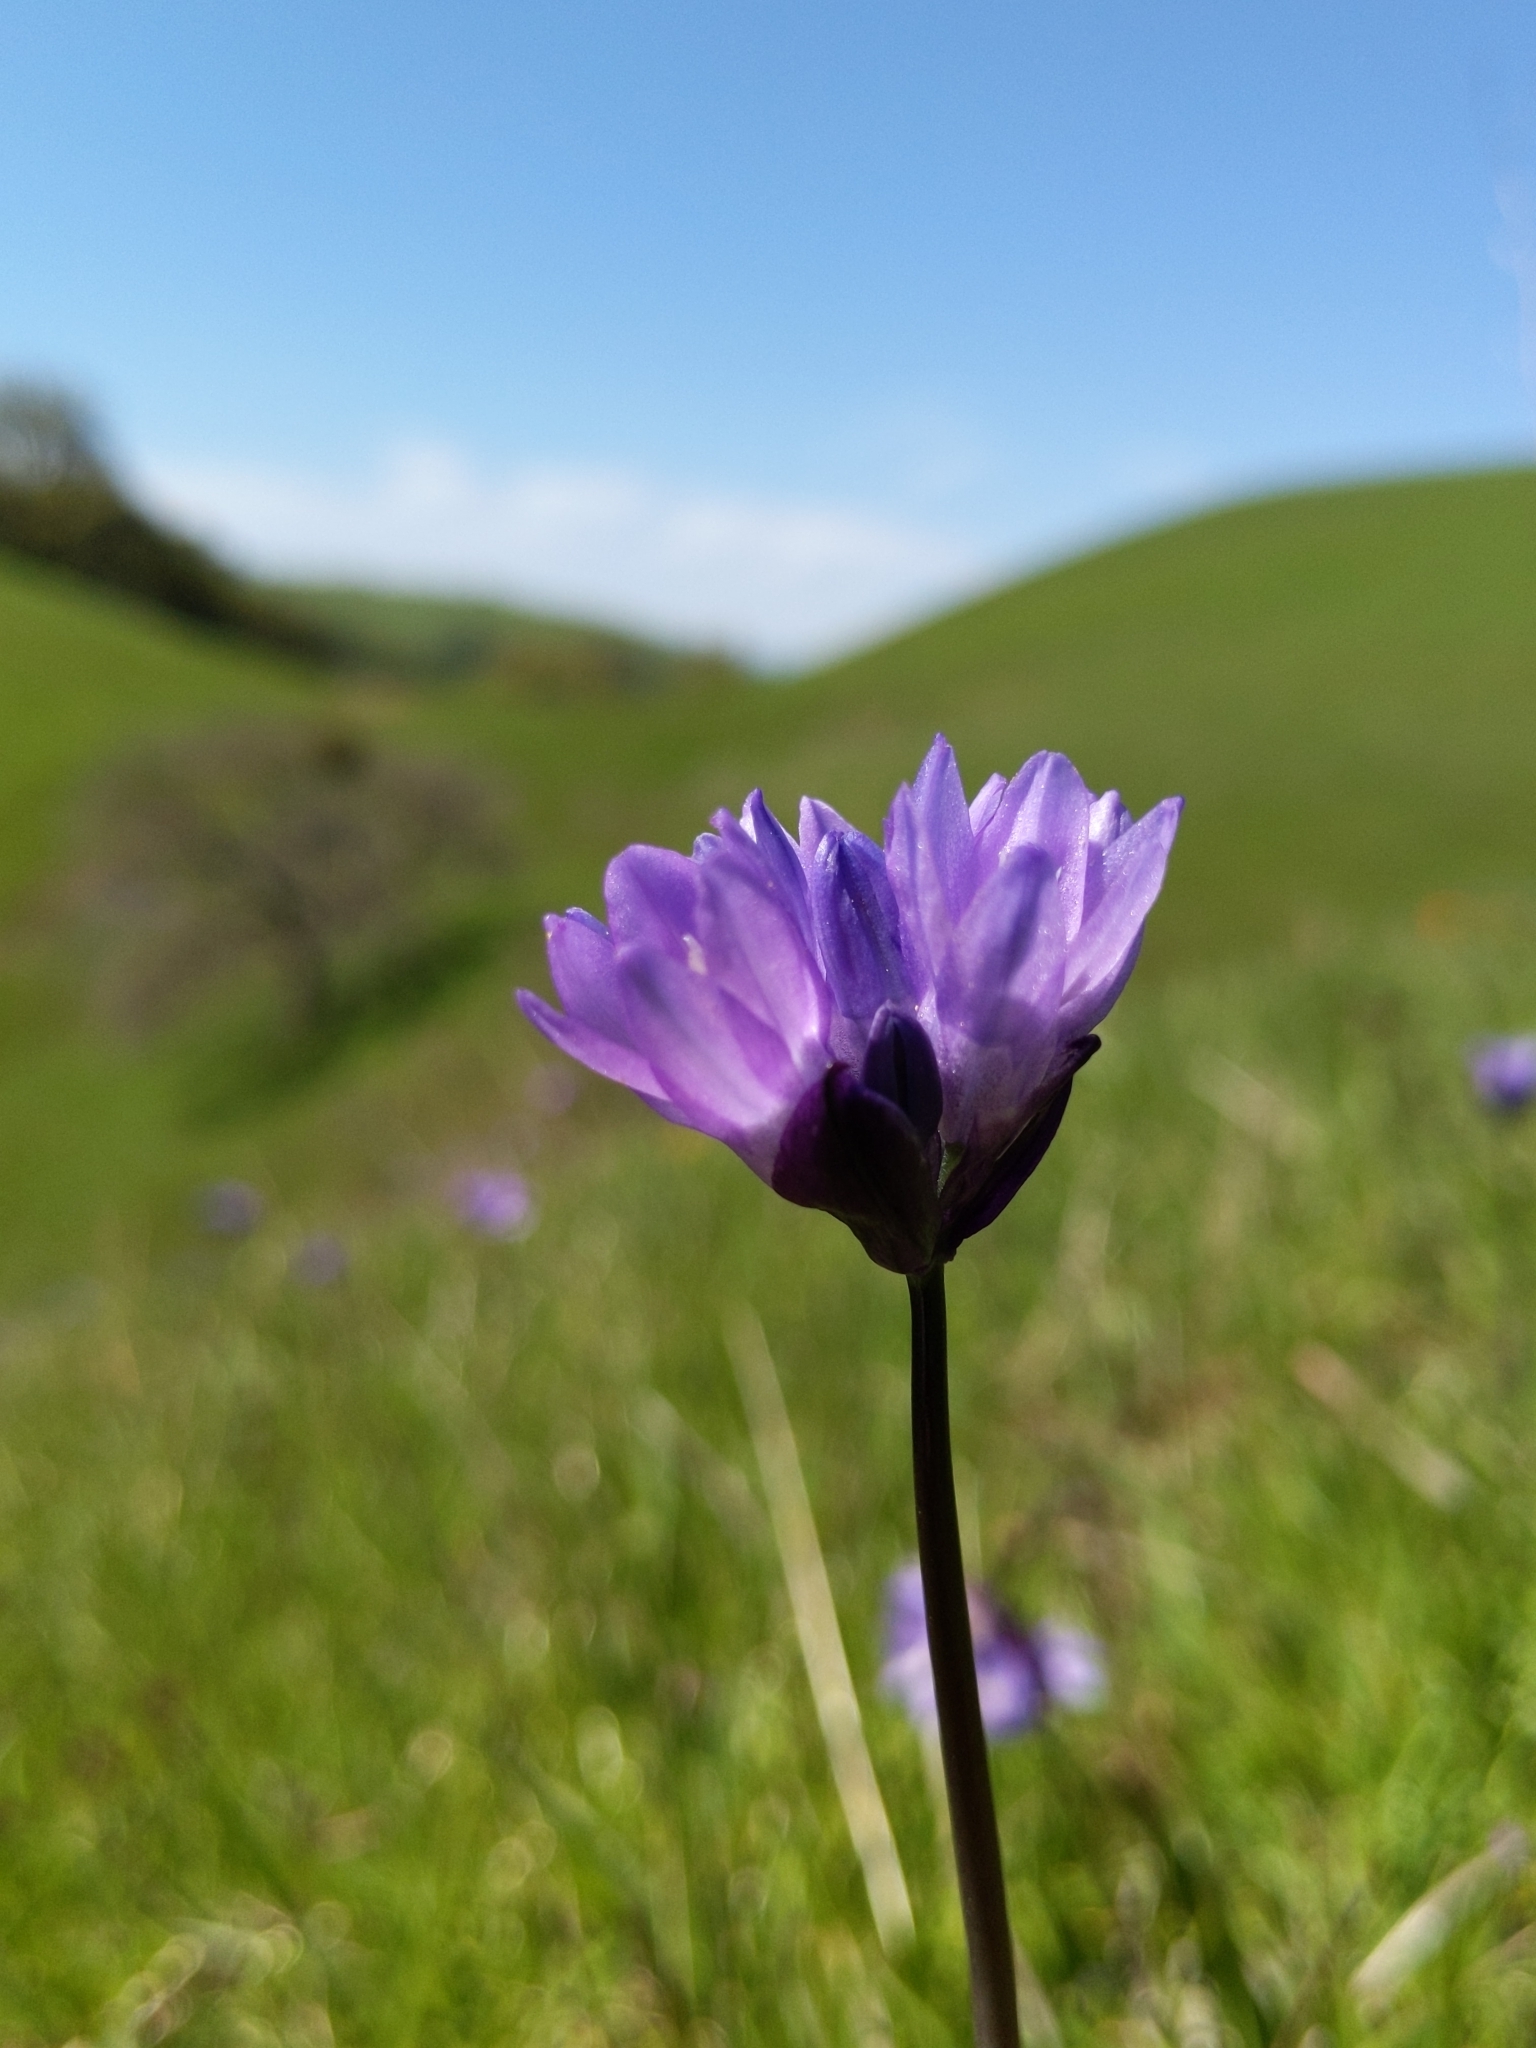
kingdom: Plantae
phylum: Tracheophyta
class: Liliopsida
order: Asparagales
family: Asparagaceae
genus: Dipterostemon
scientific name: Dipterostemon capitatus
